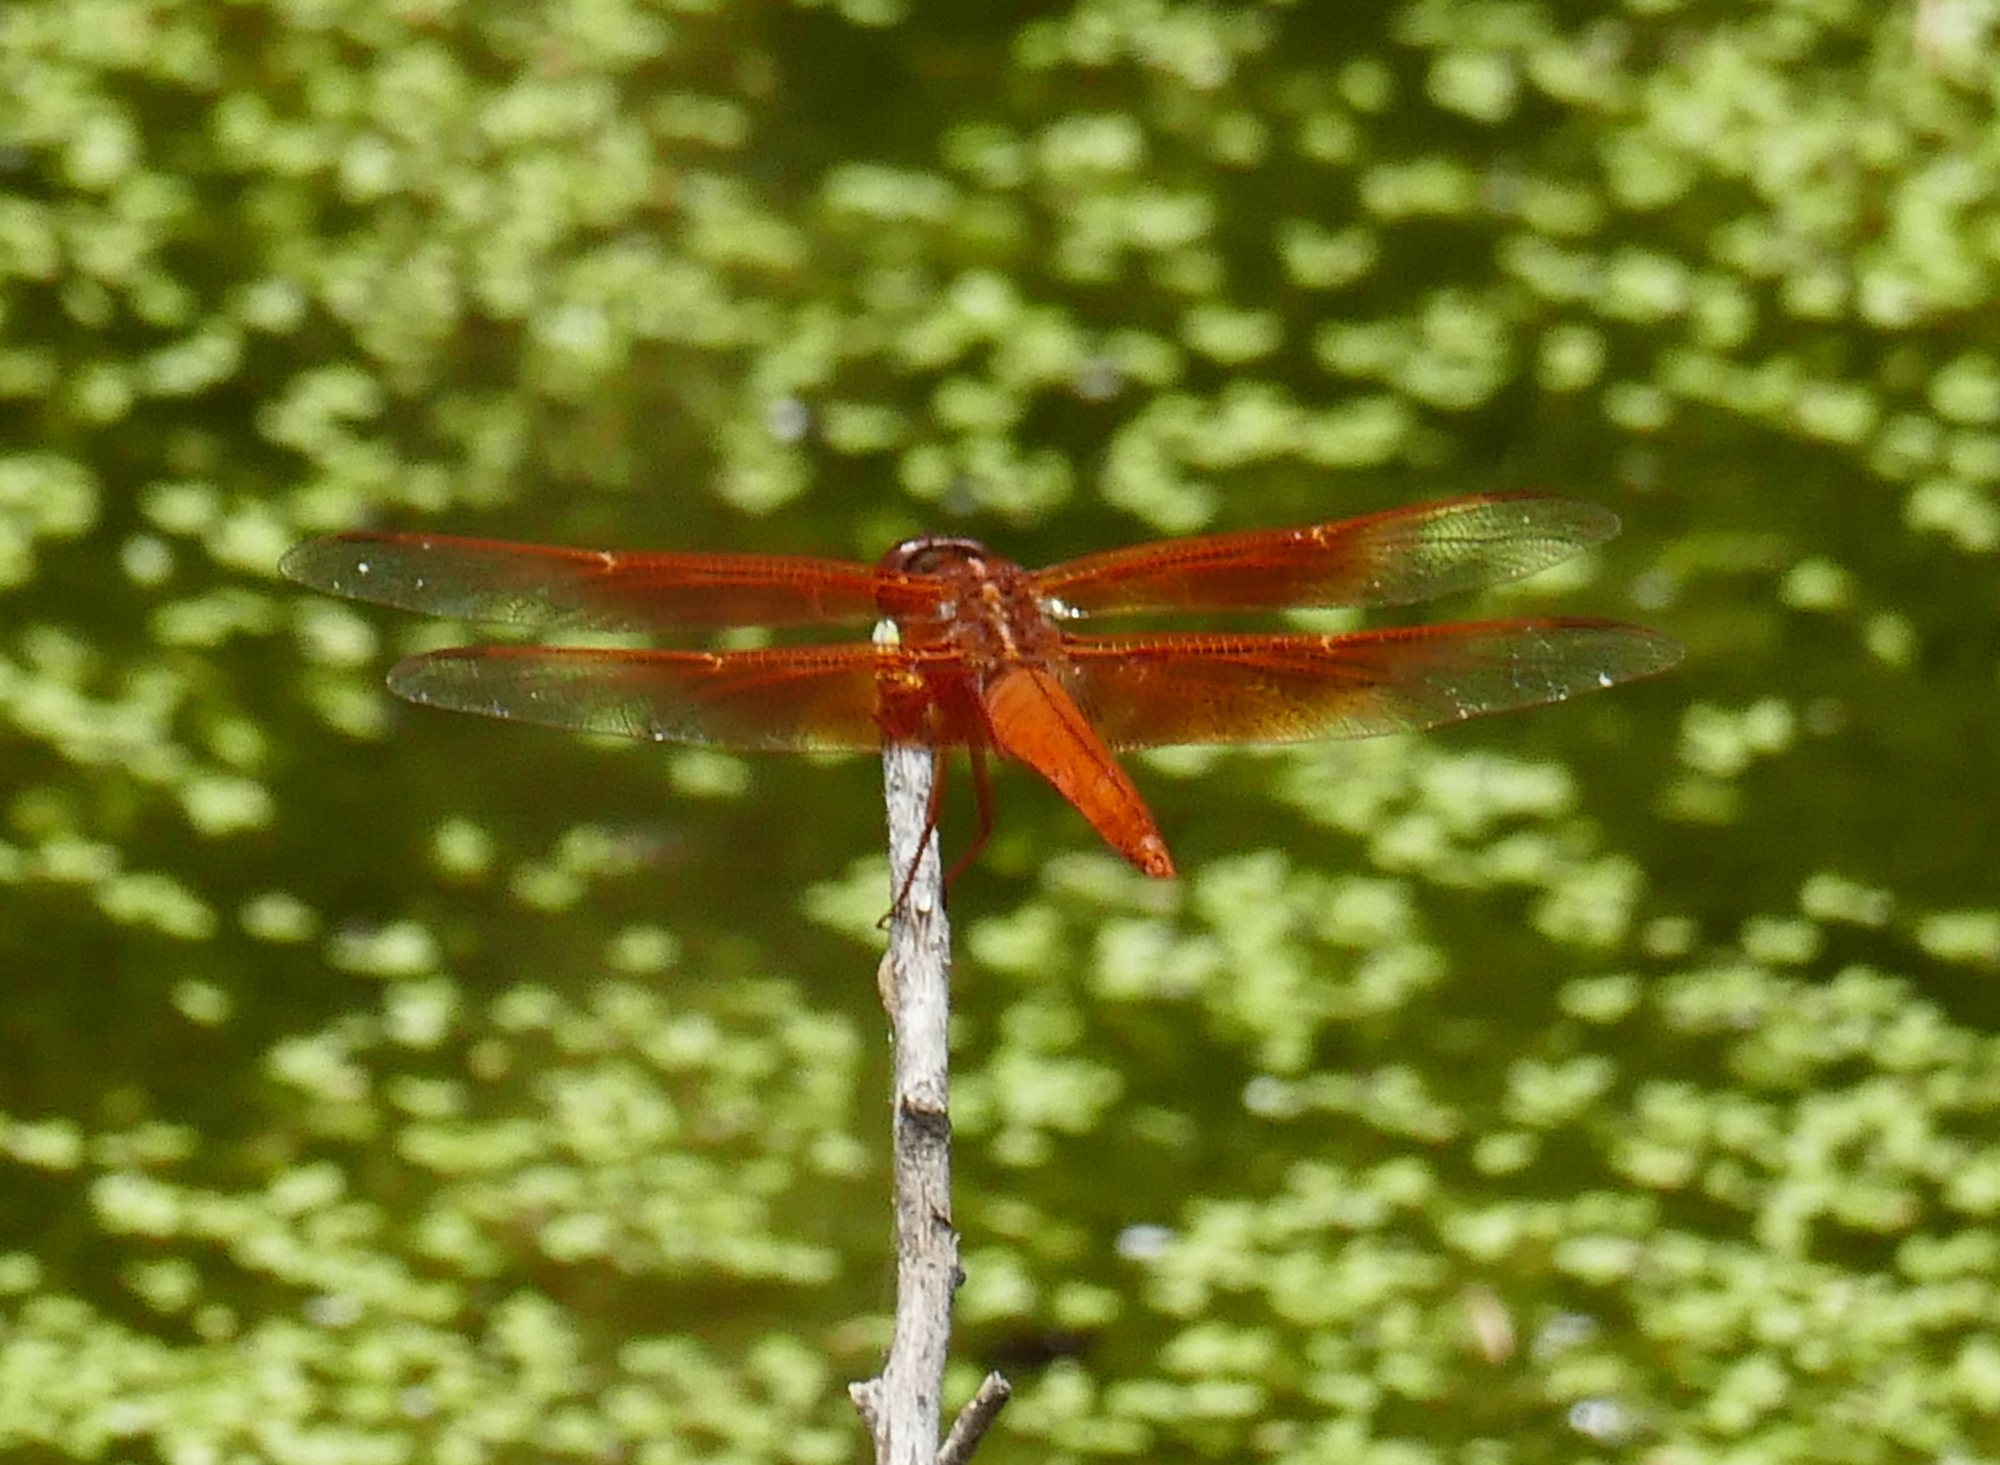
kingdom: Animalia
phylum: Arthropoda
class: Insecta
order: Odonata
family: Libellulidae
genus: Libellula
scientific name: Libellula saturata
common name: Flame skimmer
